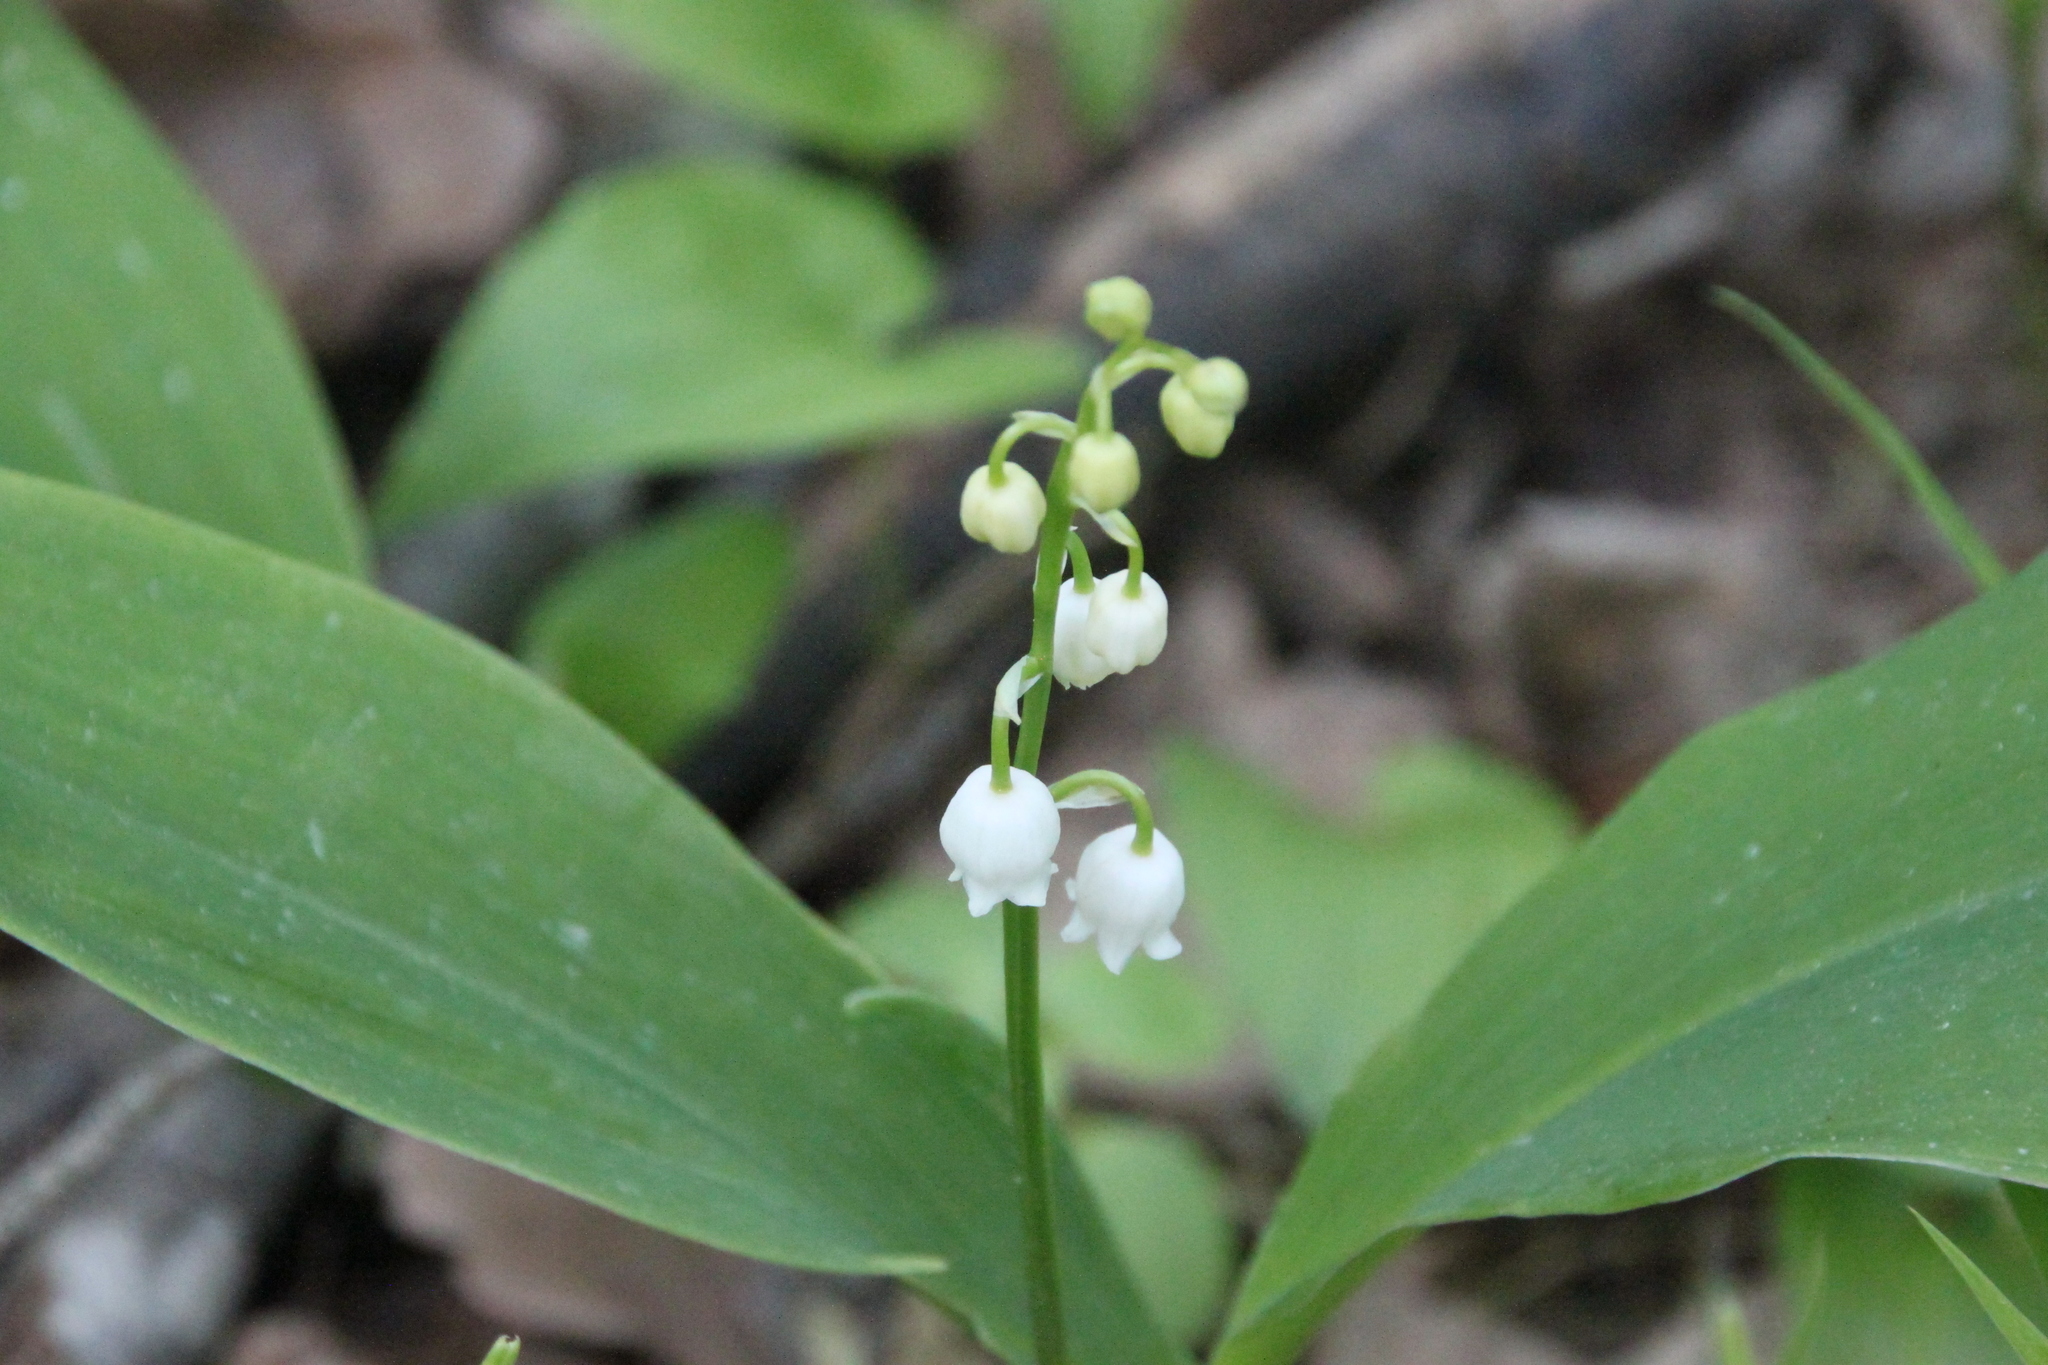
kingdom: Plantae
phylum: Tracheophyta
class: Liliopsida
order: Asparagales
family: Asparagaceae
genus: Convallaria
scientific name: Convallaria majalis
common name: Lily-of-the-valley
